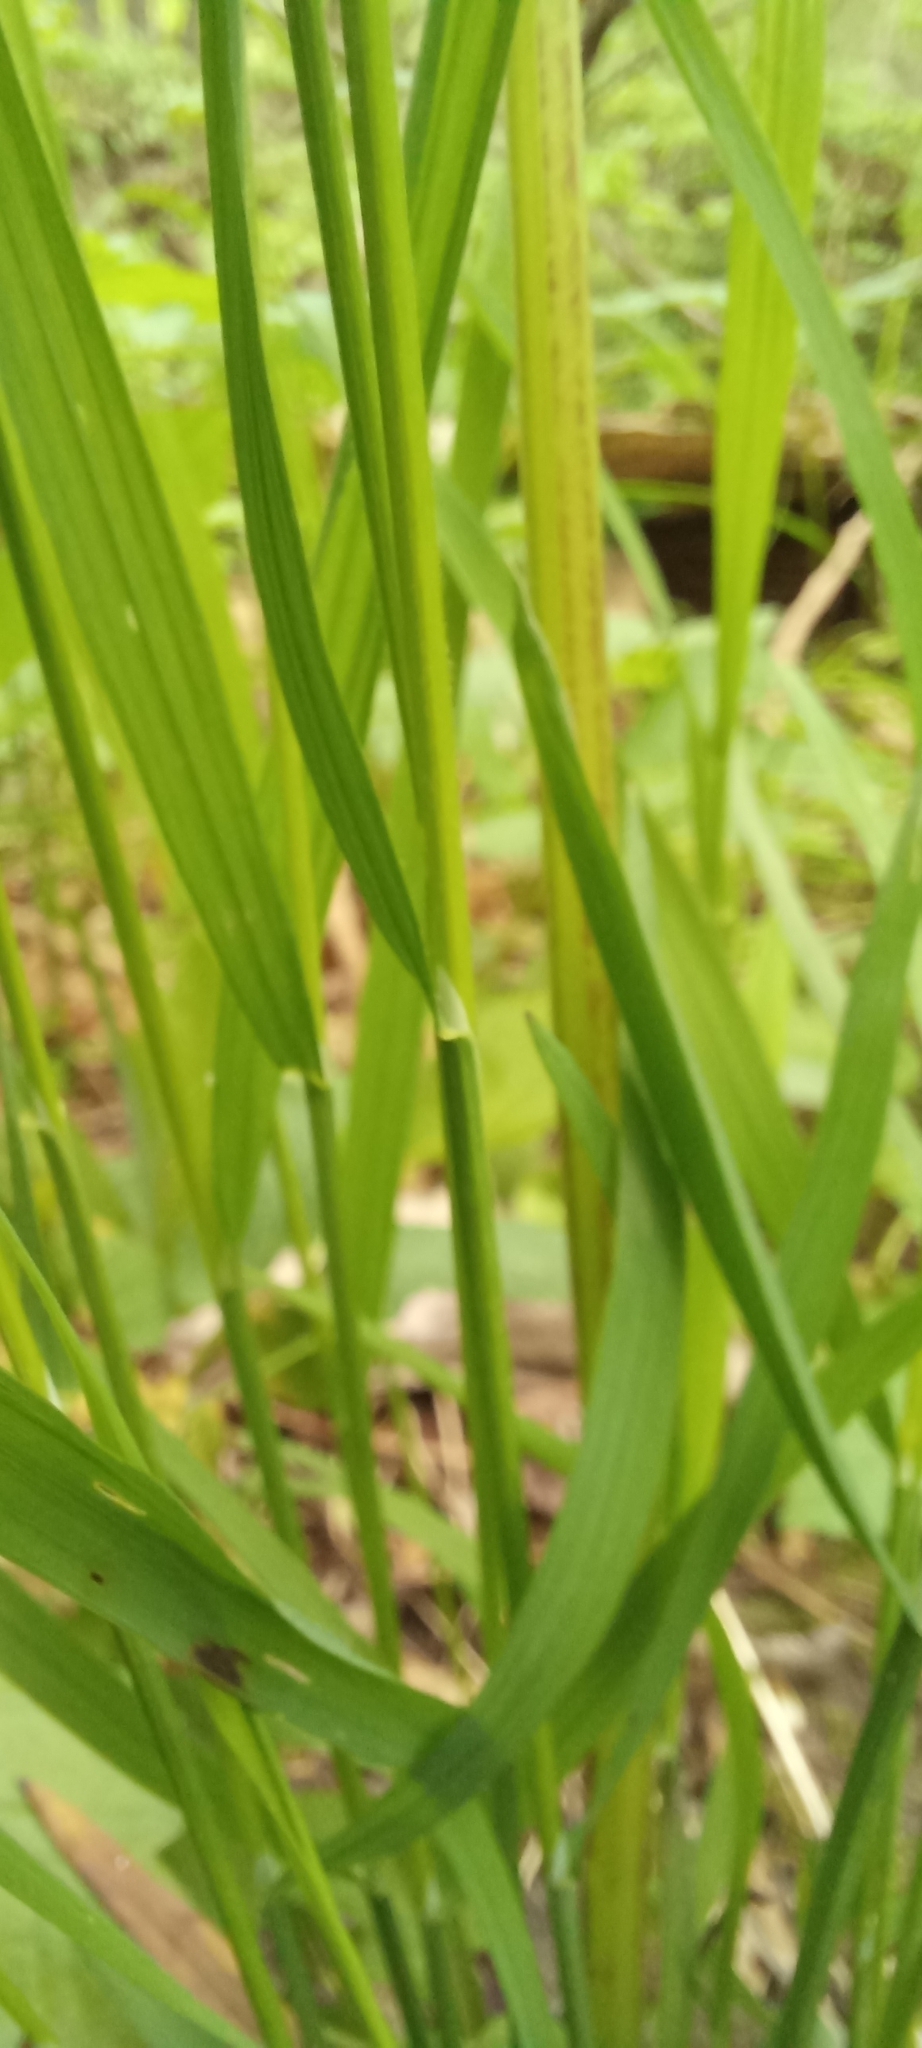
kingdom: Plantae
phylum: Tracheophyta
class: Liliopsida
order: Poales
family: Poaceae
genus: Melica
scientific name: Melica picta
